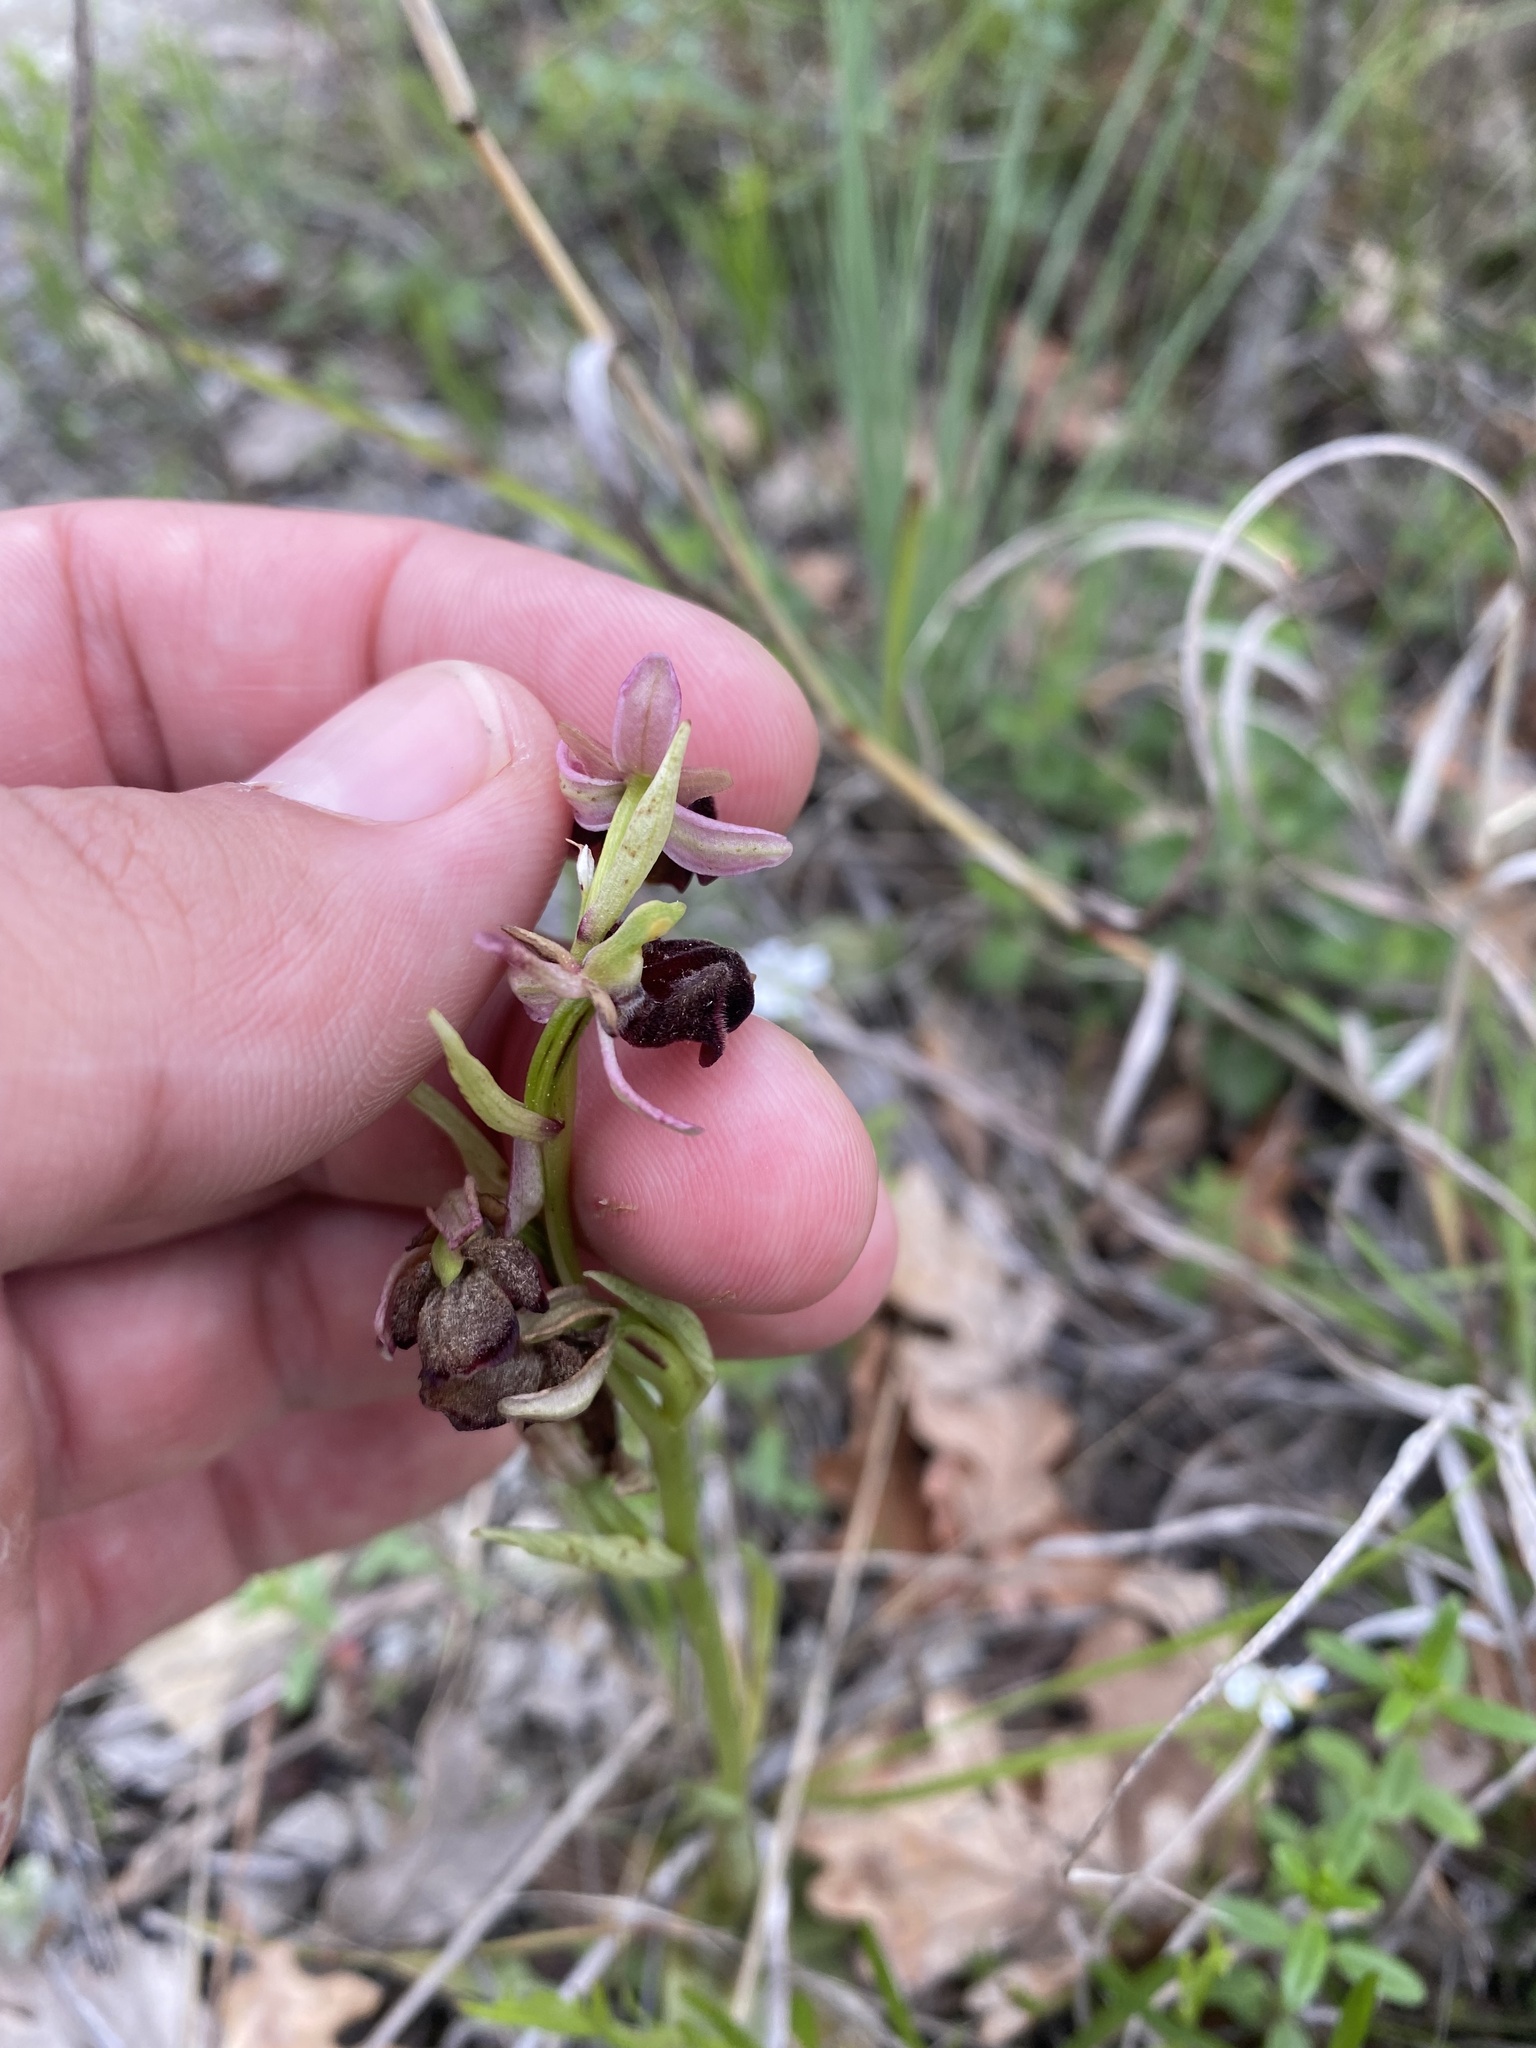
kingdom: Plantae
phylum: Tracheophyta
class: Liliopsida
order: Asparagales
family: Orchidaceae
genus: Ophrys
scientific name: Ophrys sphegodes
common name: Early spider-orchid
